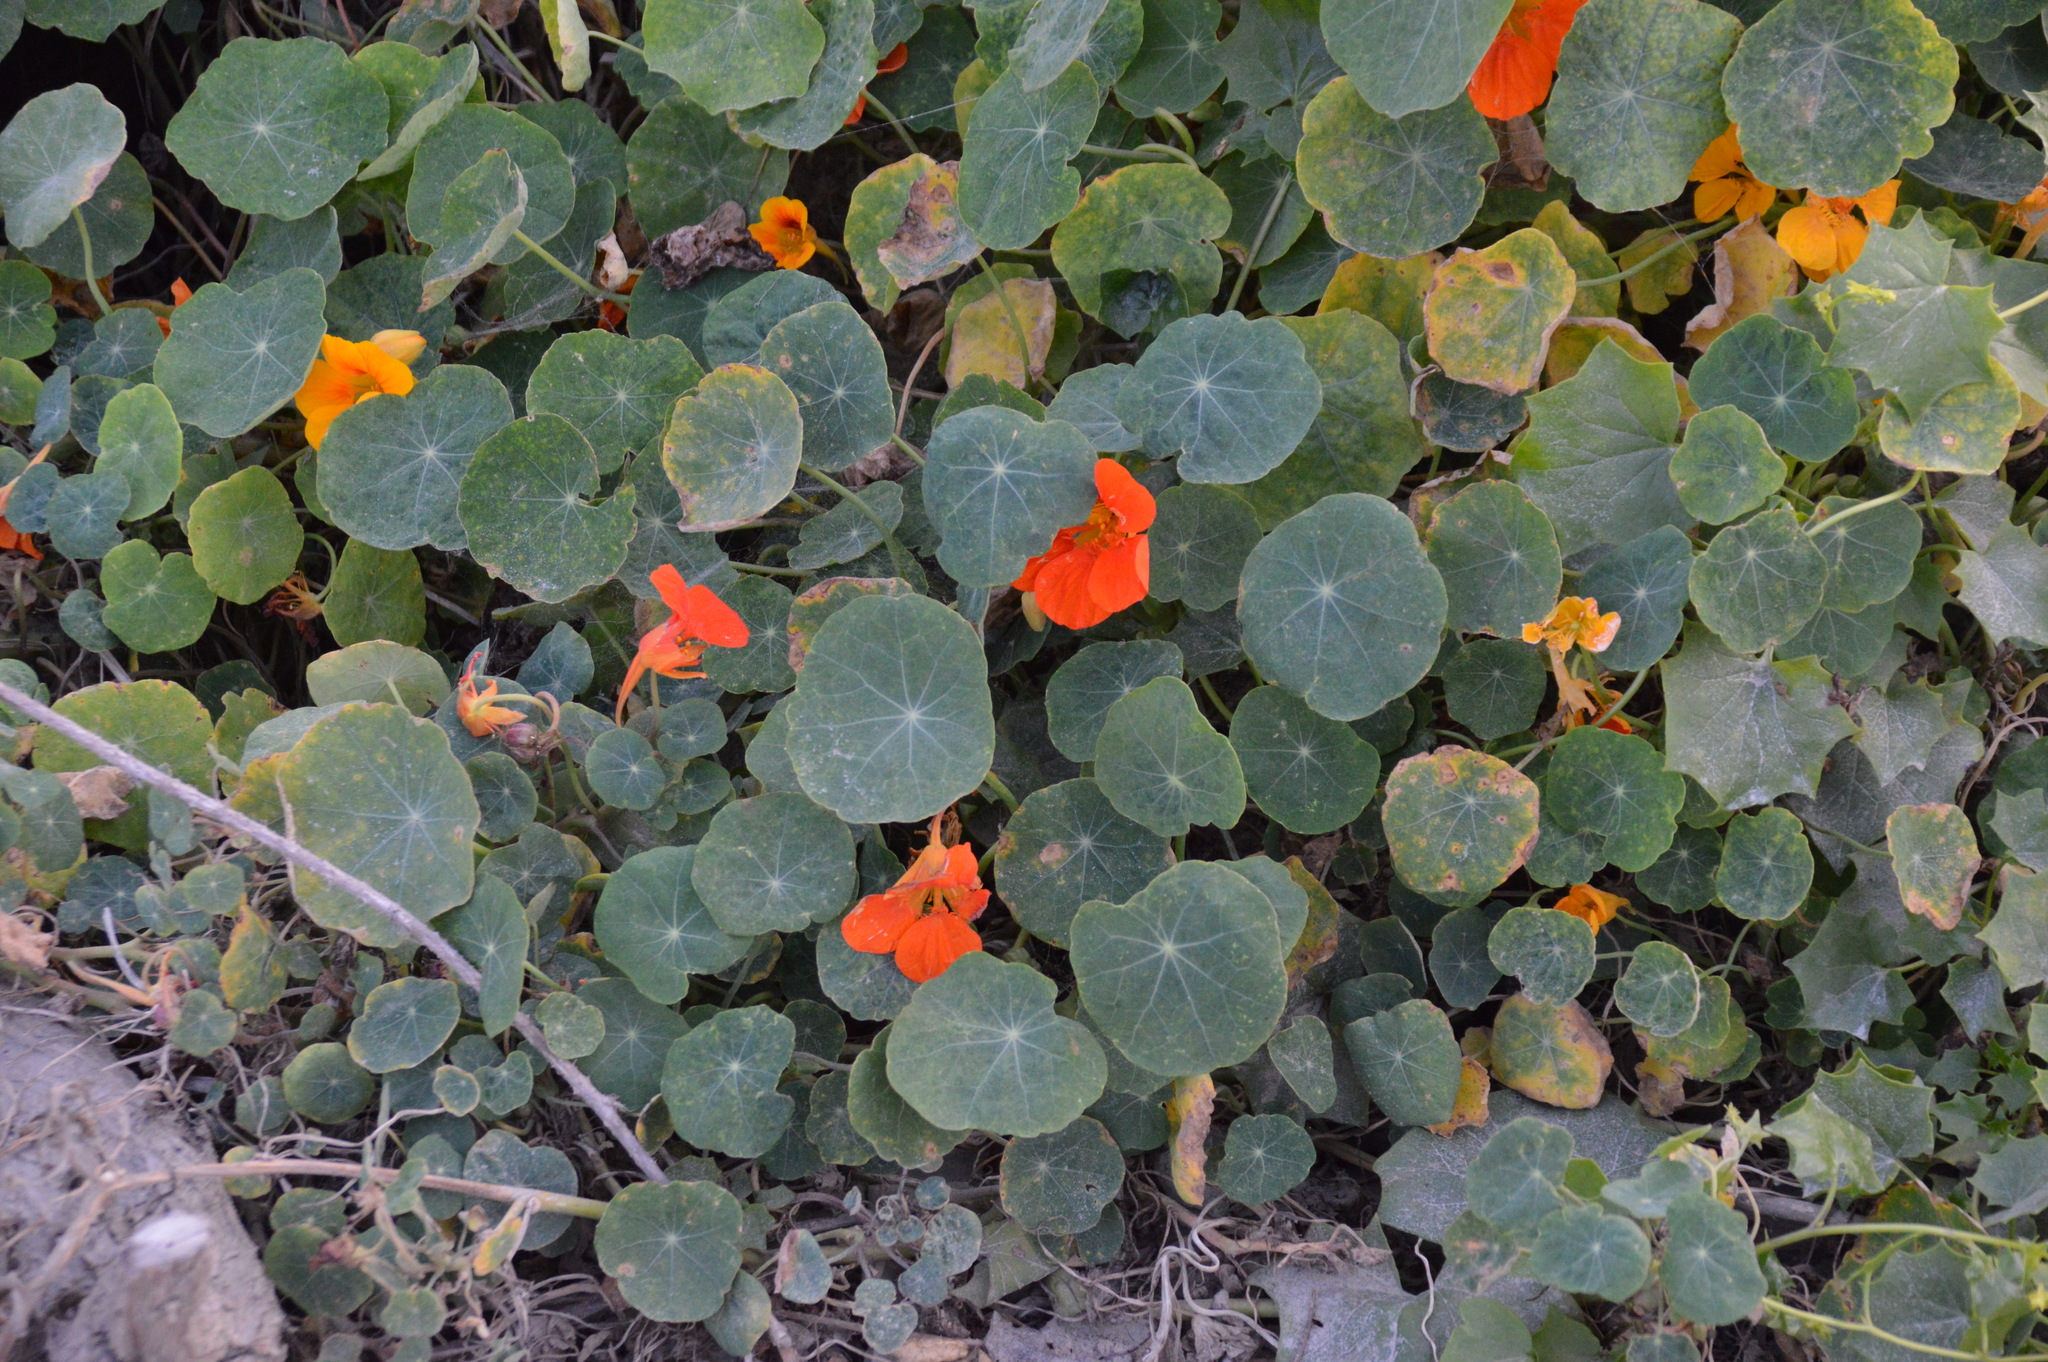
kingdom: Plantae
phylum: Tracheophyta
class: Magnoliopsida
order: Brassicales
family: Tropaeolaceae
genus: Tropaeolum
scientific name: Tropaeolum majus
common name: Nasturtium
